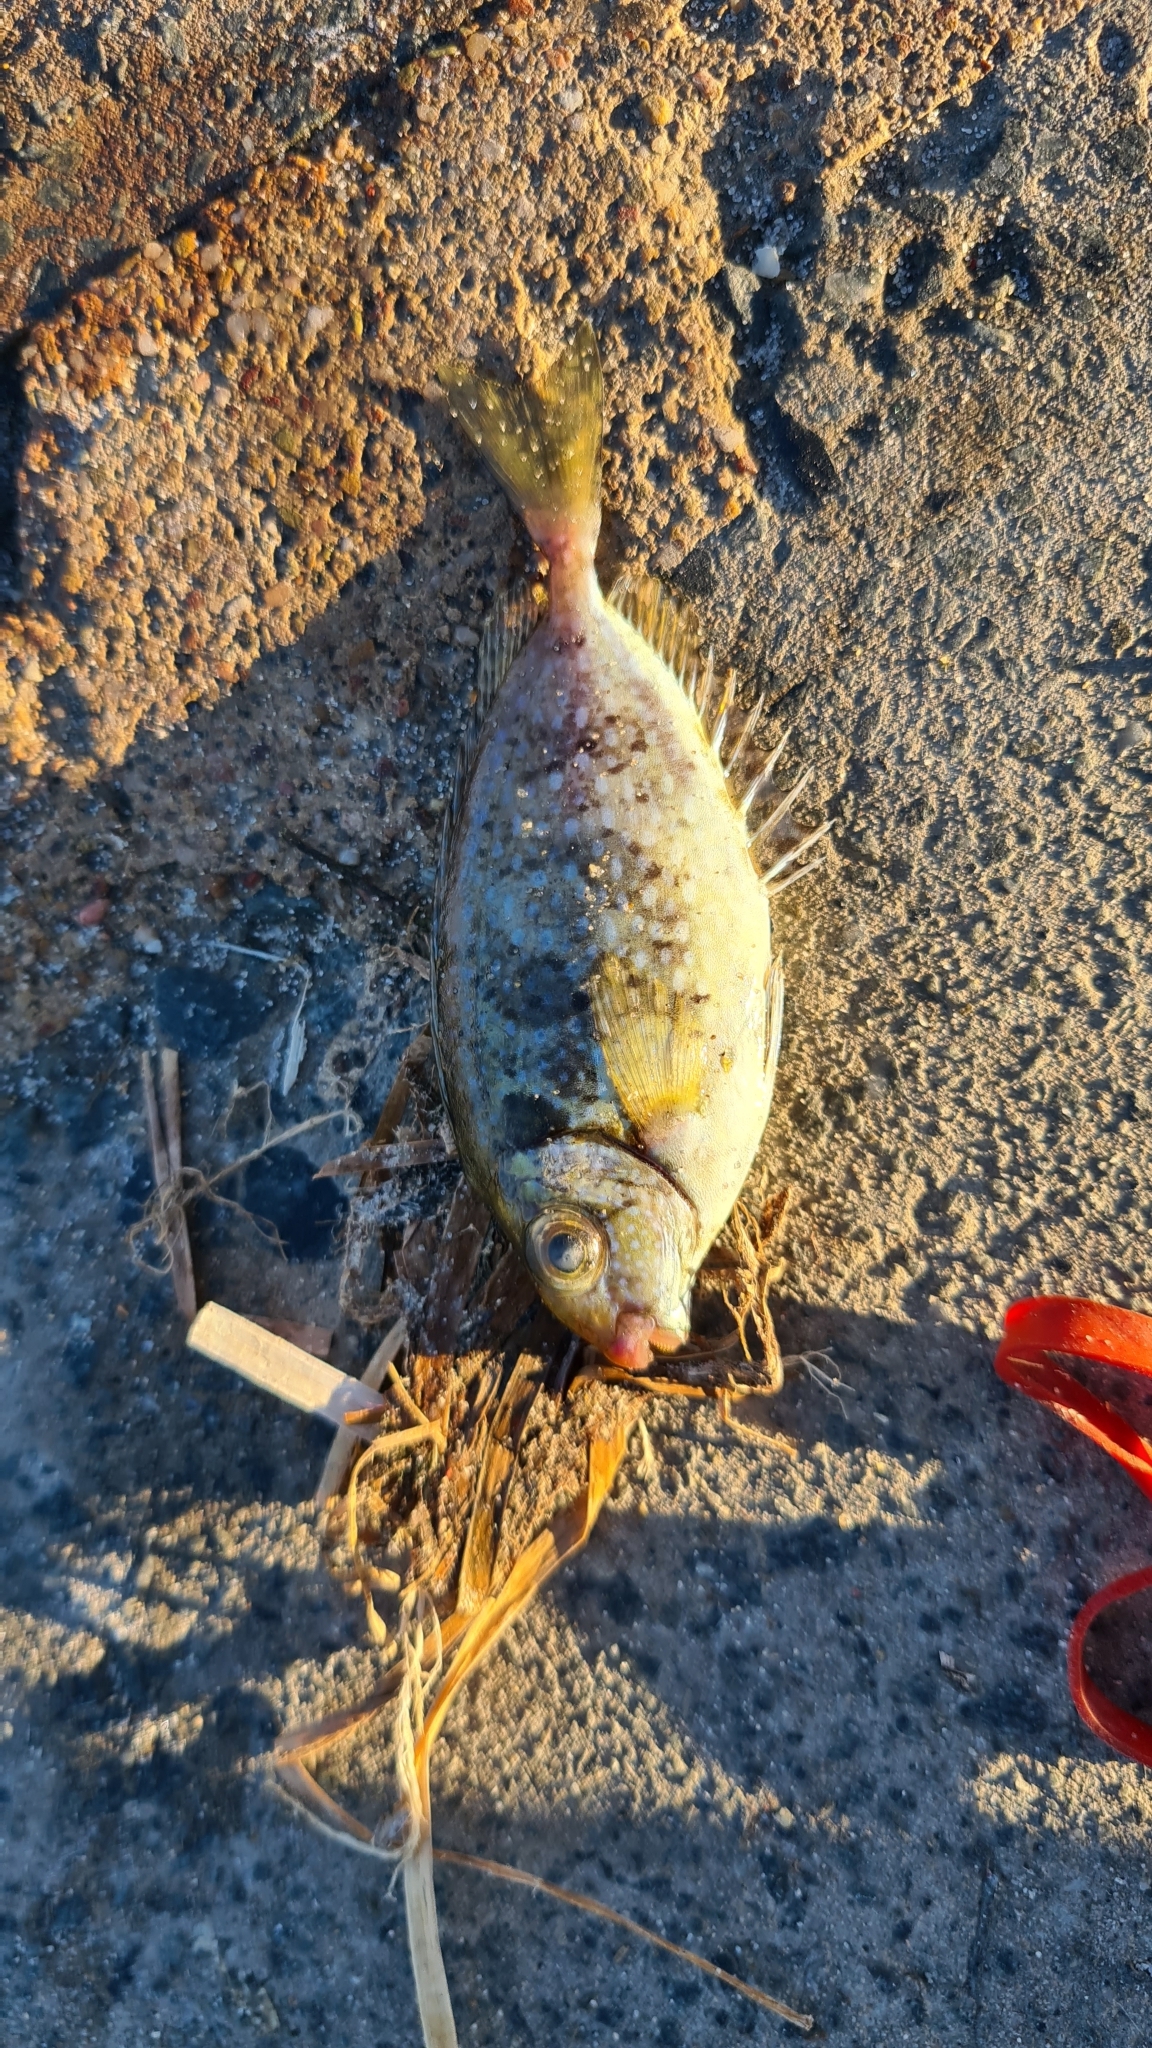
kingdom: Animalia
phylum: Chordata
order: Perciformes
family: Siganidae
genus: Siganus
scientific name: Siganus fuscescens
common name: Dusky rabbitfish
